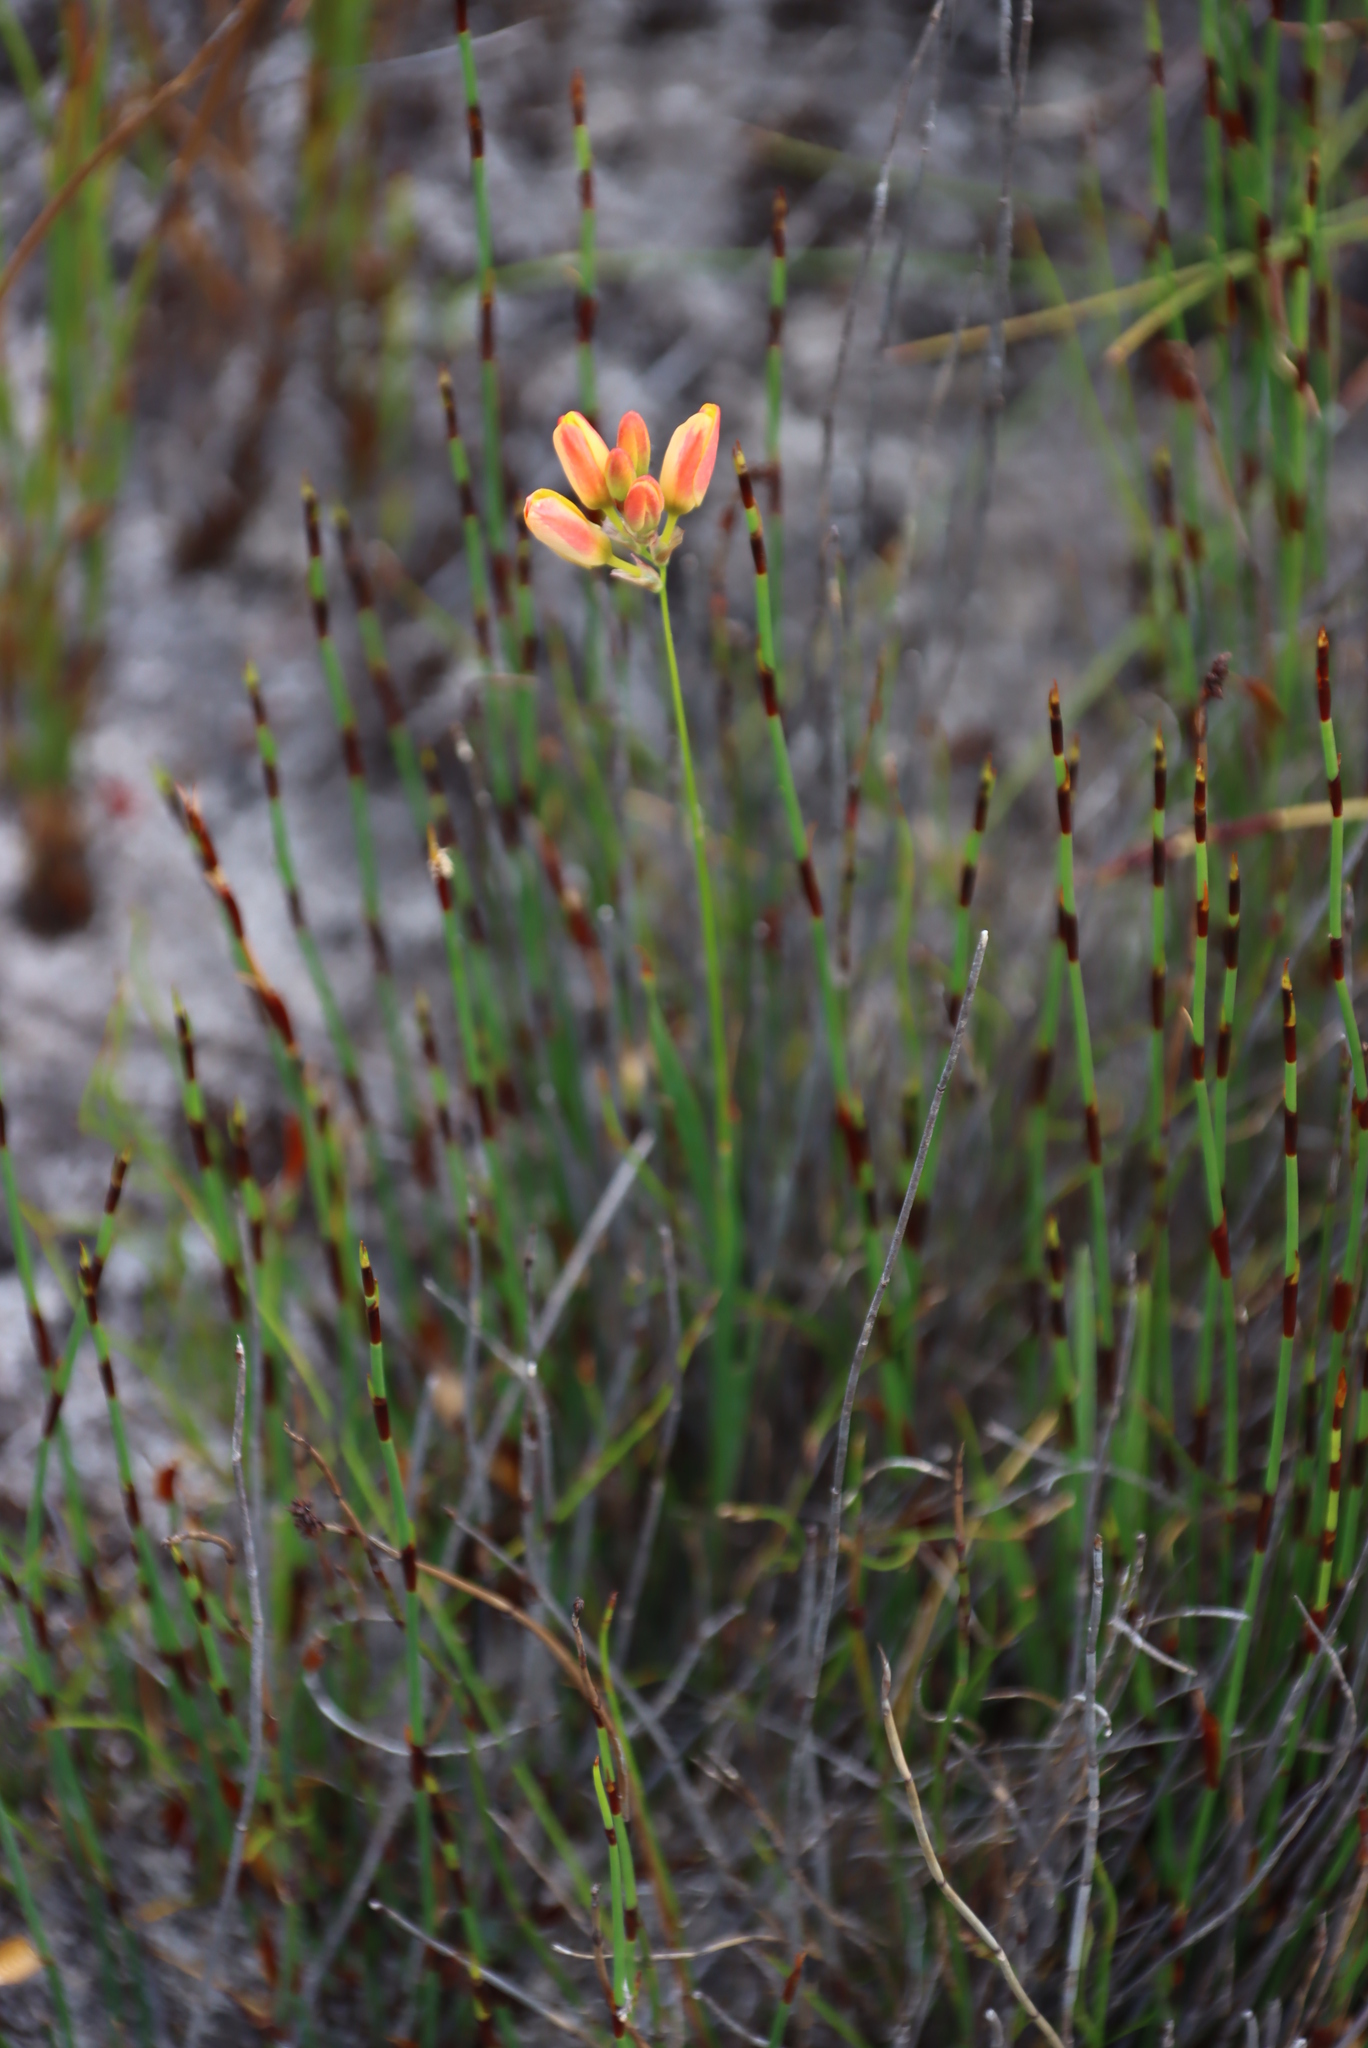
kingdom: Plantae
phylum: Tracheophyta
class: Liliopsida
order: Asparagales
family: Iridaceae
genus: Ixia
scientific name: Ixia dubia
